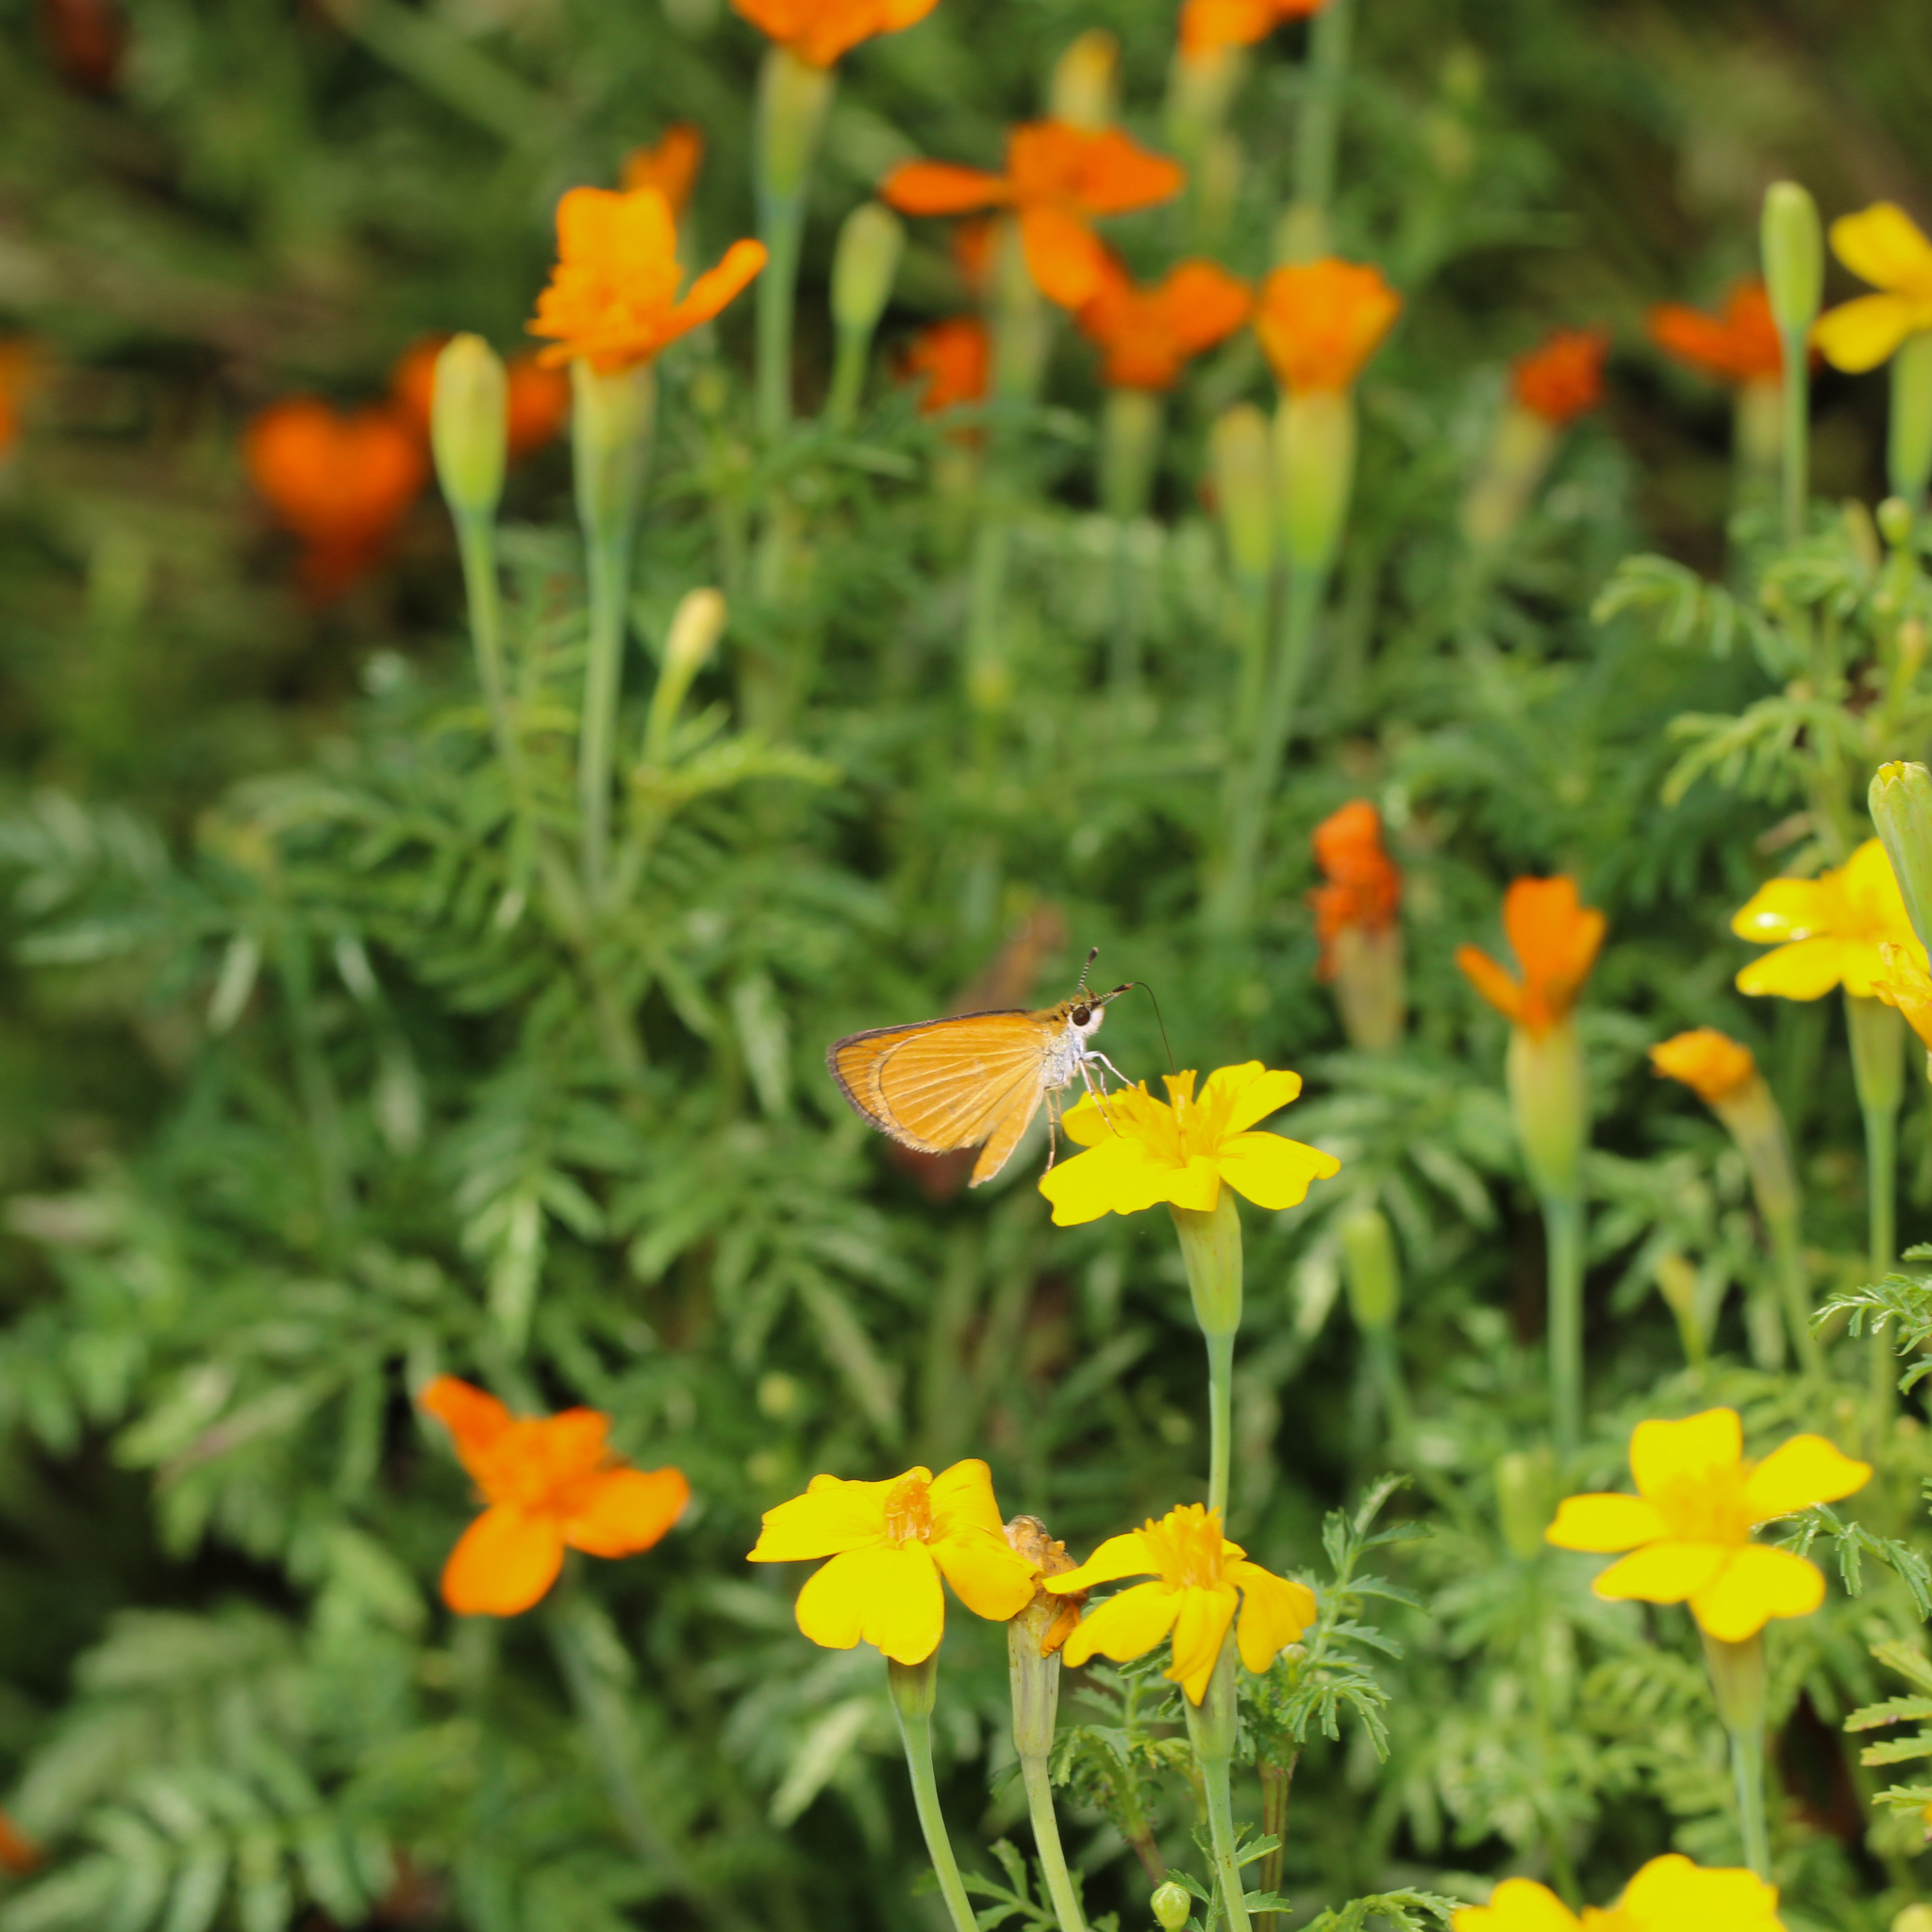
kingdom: Animalia
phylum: Arthropoda
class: Insecta
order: Lepidoptera
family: Hesperiidae
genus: Ancyloxypha
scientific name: Ancyloxypha numitor
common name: Least skipper
